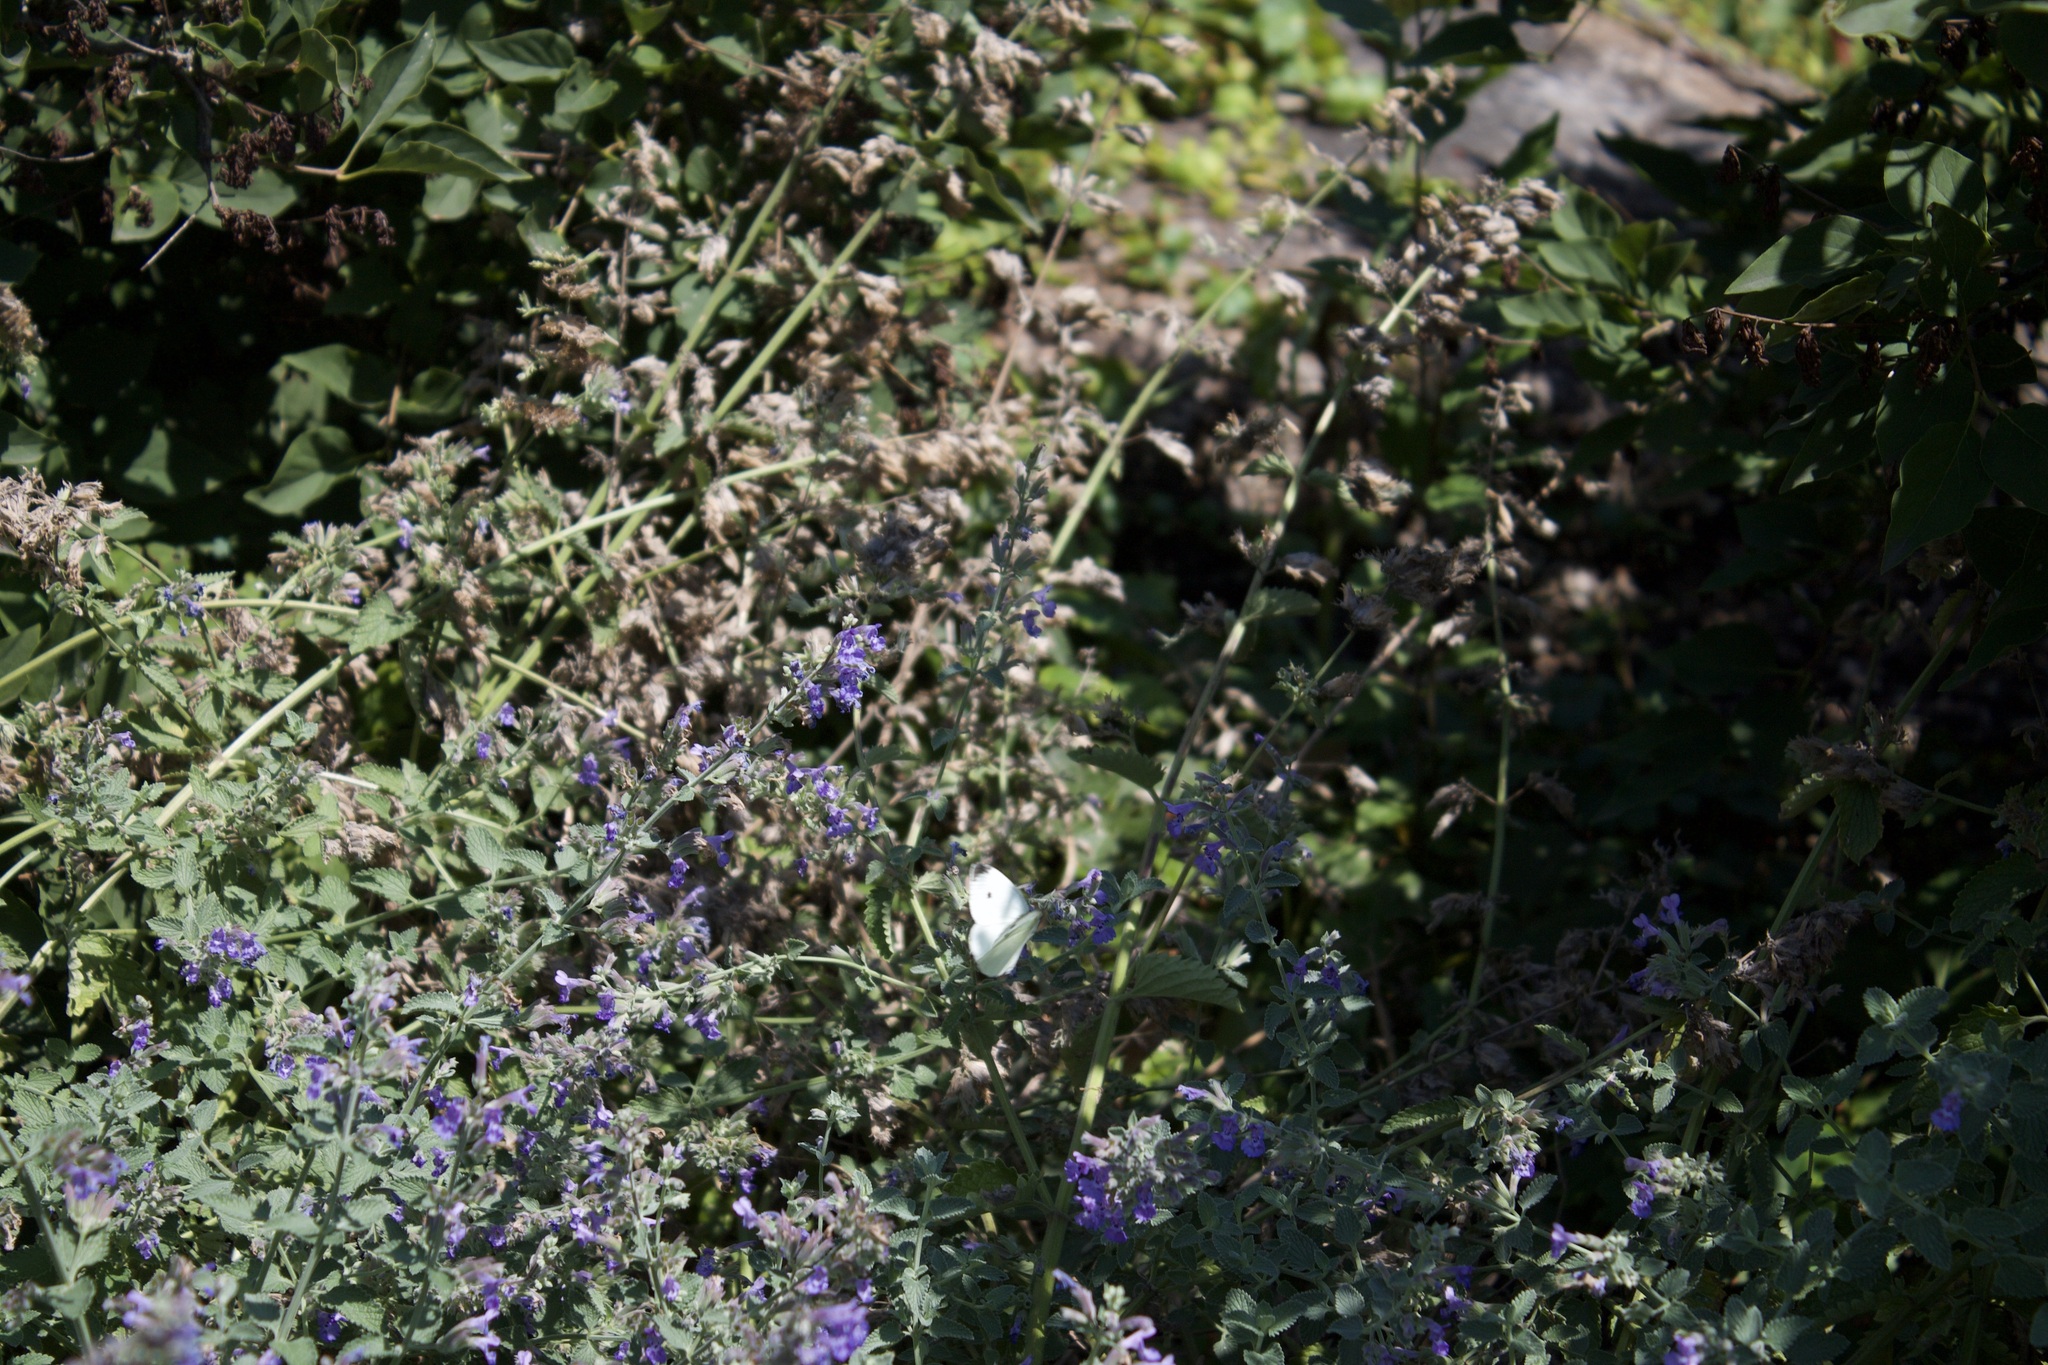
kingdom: Animalia
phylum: Arthropoda
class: Insecta
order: Lepidoptera
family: Pieridae
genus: Pieris
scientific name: Pieris rapae
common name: Small white
